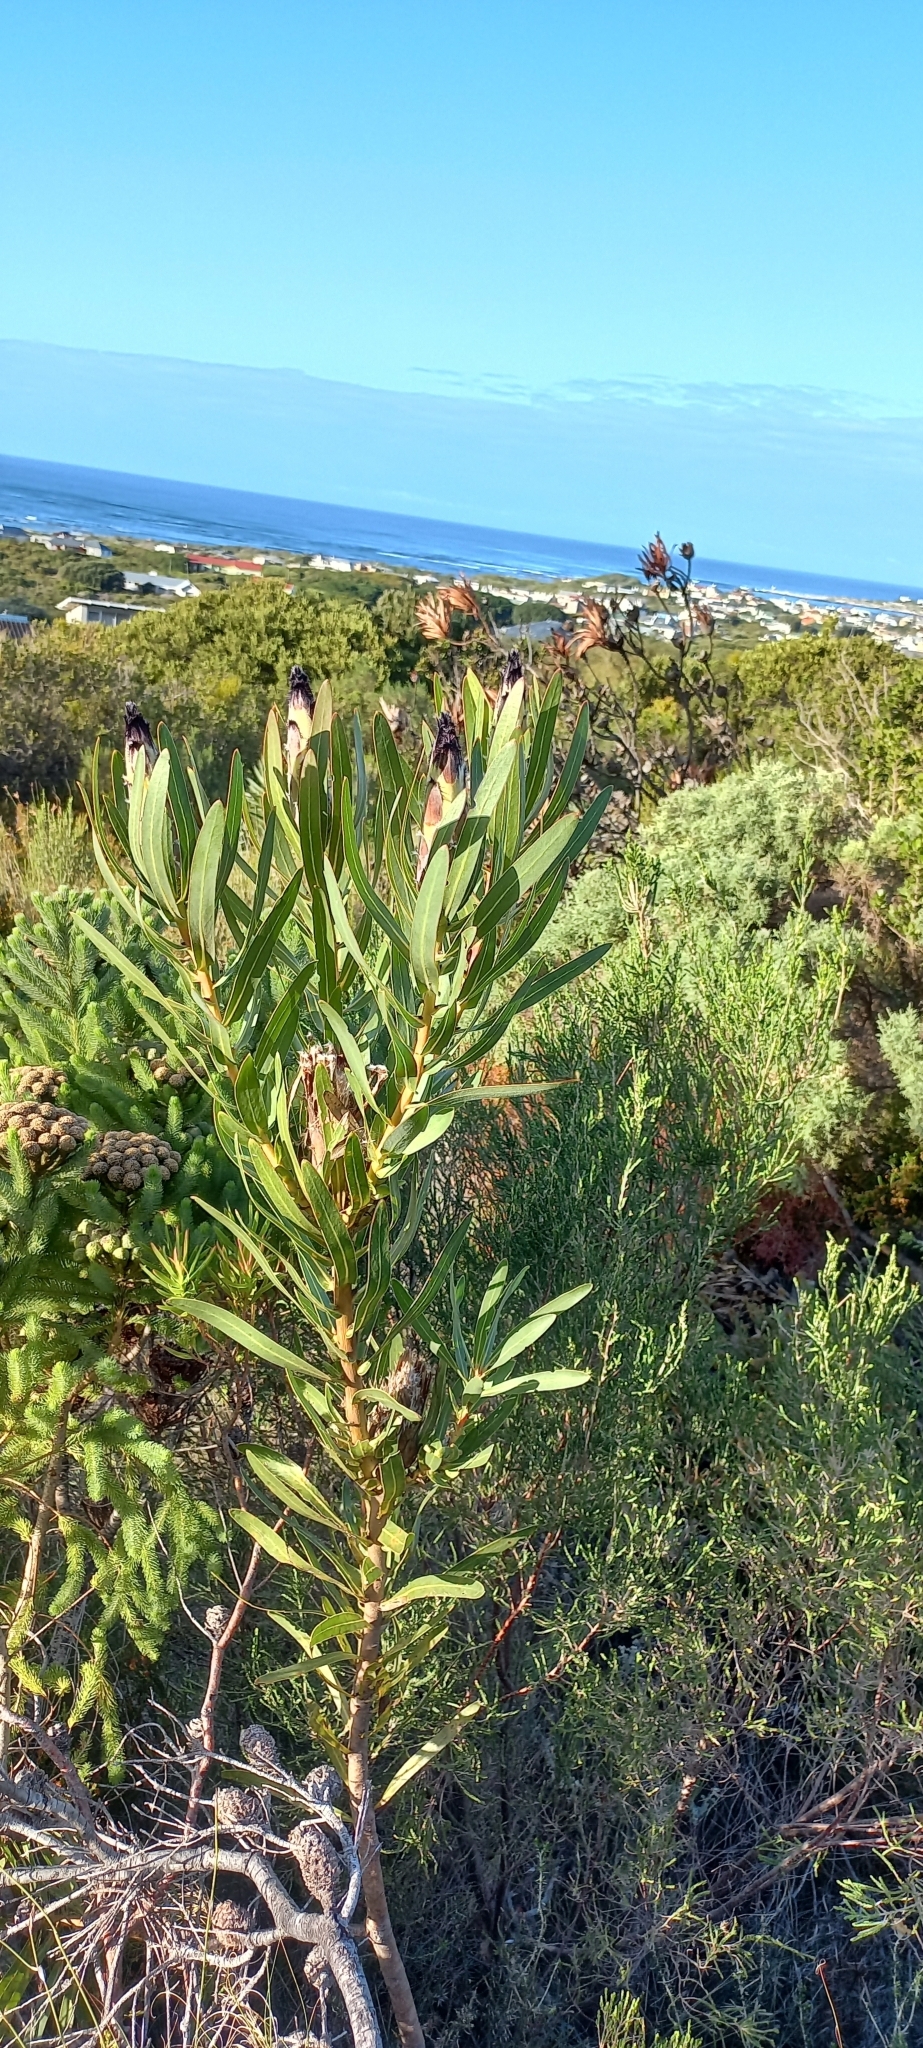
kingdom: Plantae
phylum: Tracheophyta
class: Magnoliopsida
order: Proteales
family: Proteaceae
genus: Protea
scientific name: Protea lepidocarpodendron
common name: Black-bearded protea
